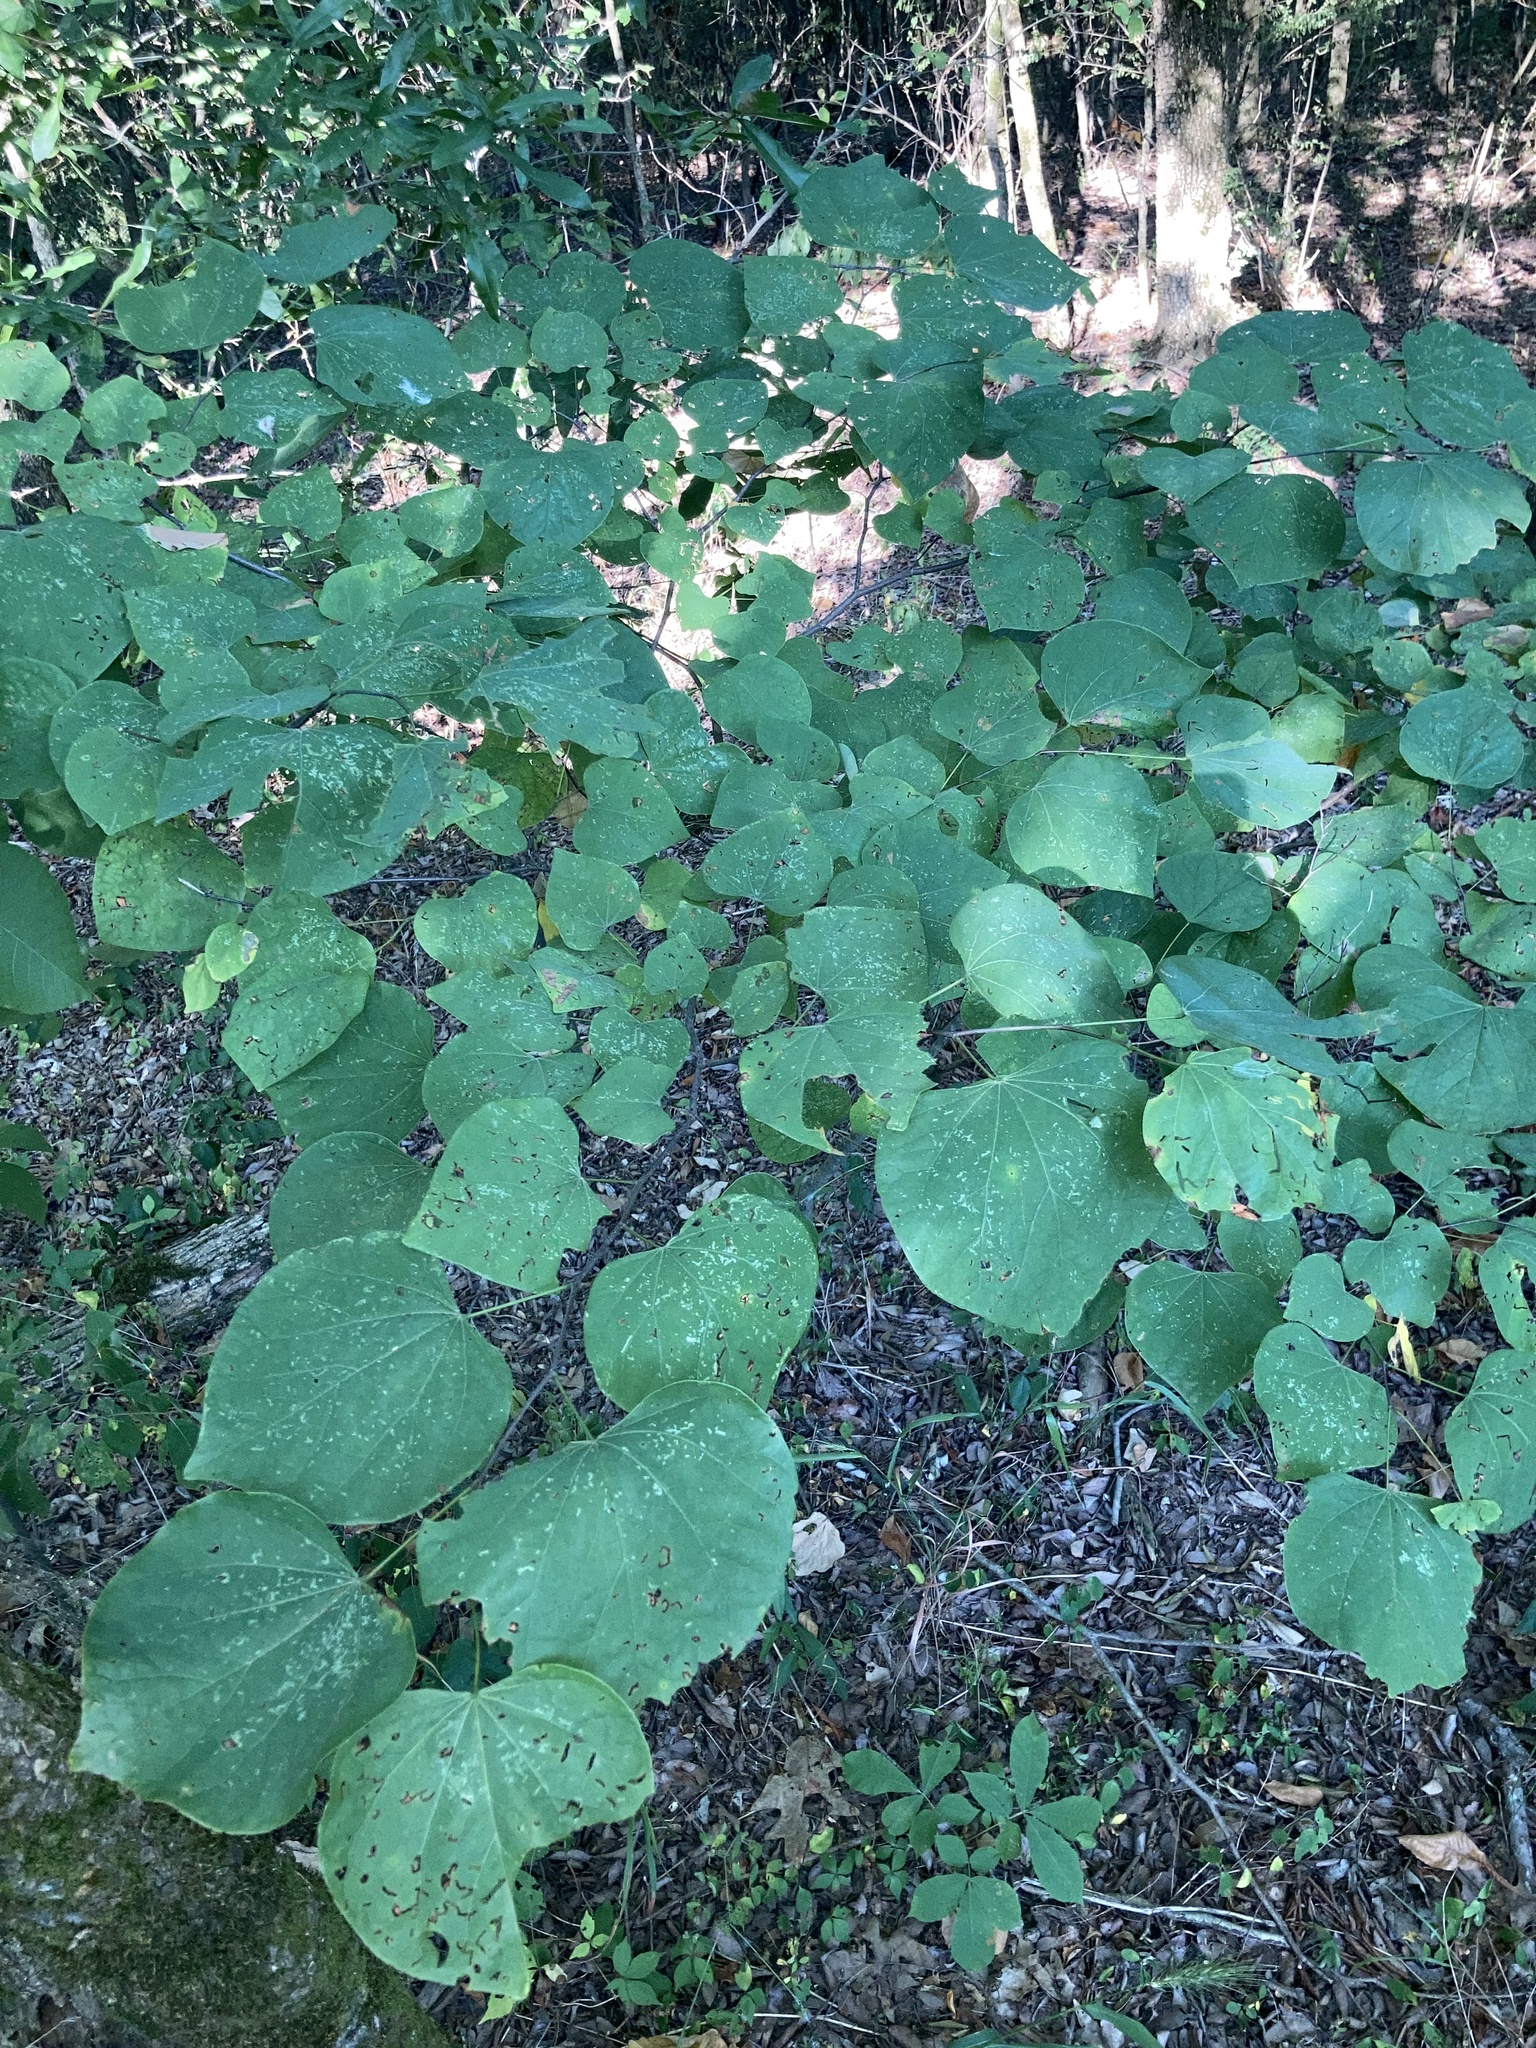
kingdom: Plantae
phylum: Tracheophyta
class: Magnoliopsida
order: Fabales
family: Fabaceae
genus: Cercis
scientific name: Cercis canadensis
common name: Eastern redbud
